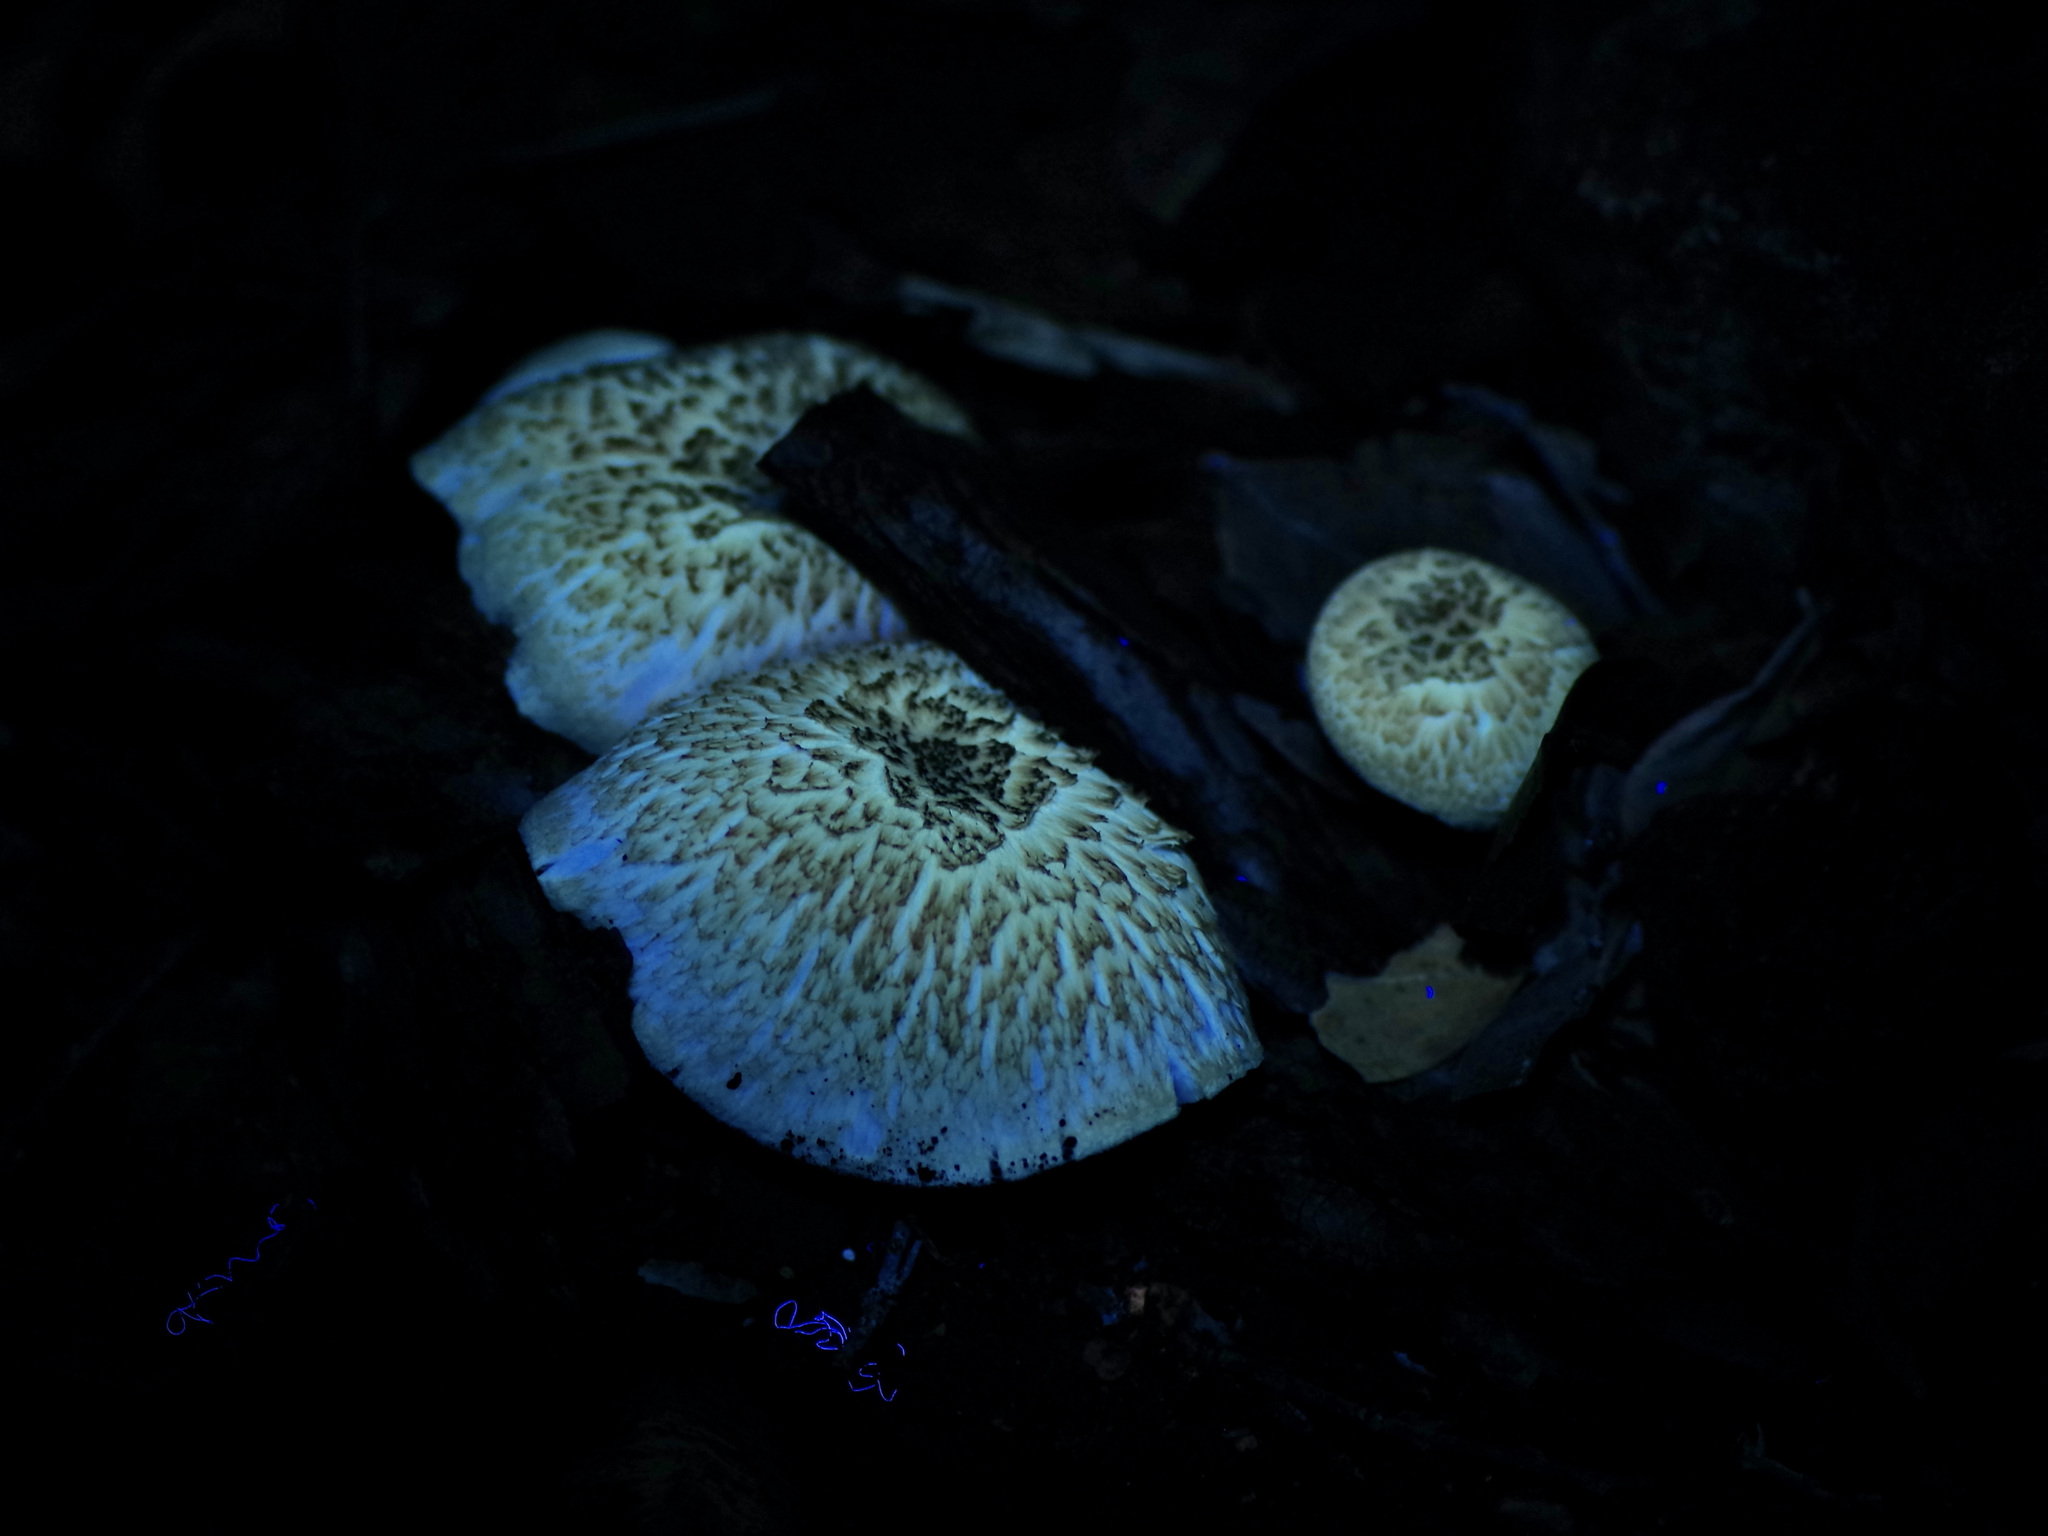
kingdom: Fungi
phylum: Basidiomycota
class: Agaricomycetes
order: Polyporales
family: Polyporaceae
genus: Lentinus
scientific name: Lentinus tigrinus
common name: Tiger sawgill
